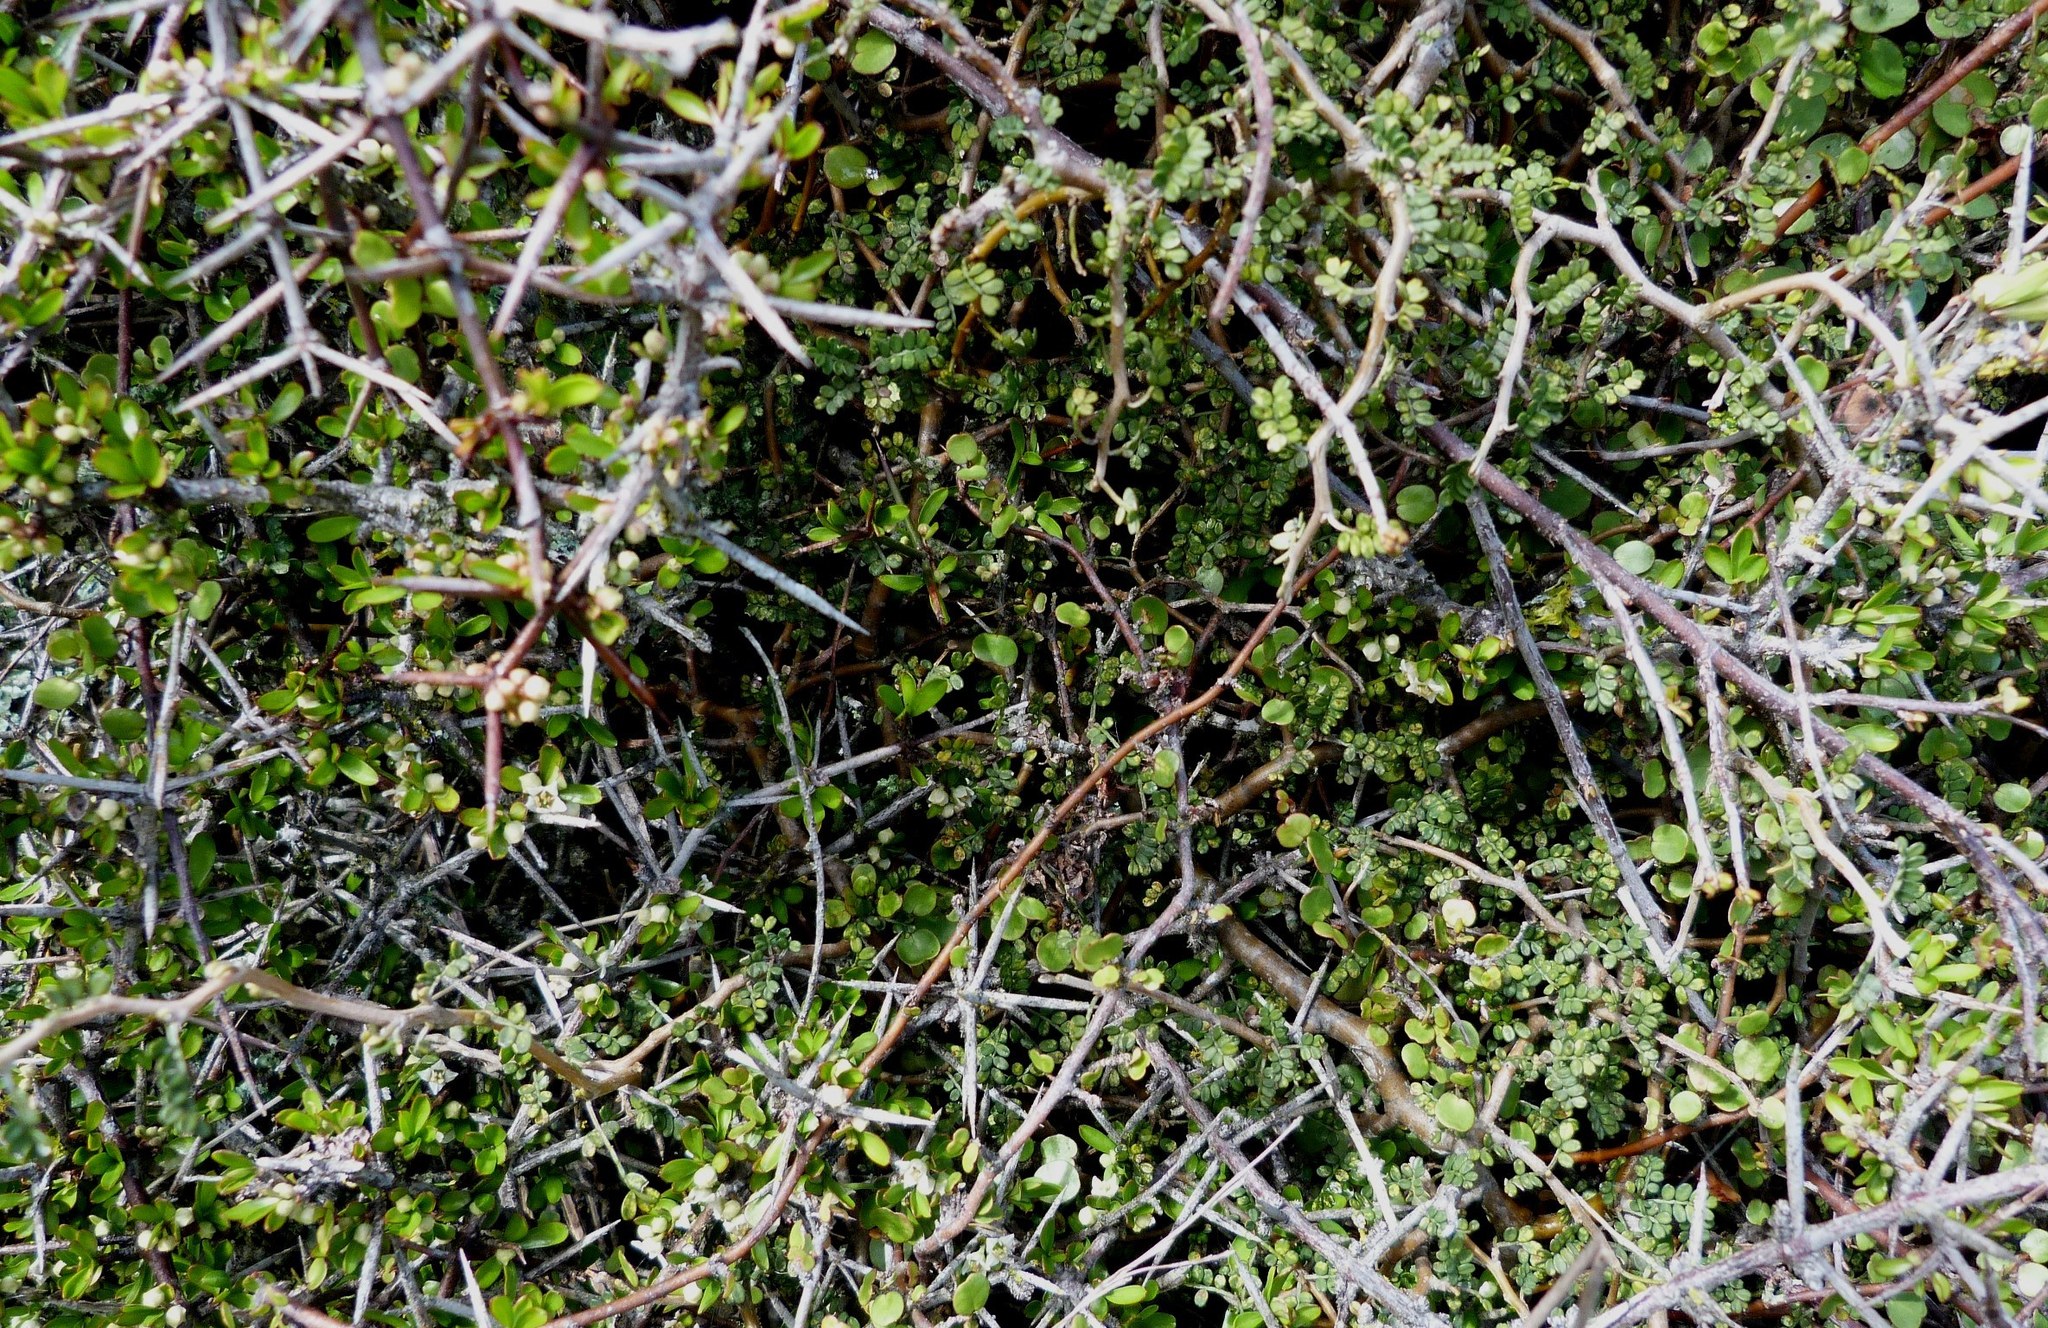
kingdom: Plantae
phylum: Tracheophyta
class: Magnoliopsida
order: Fabales
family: Fabaceae
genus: Sophora
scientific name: Sophora prostrata
